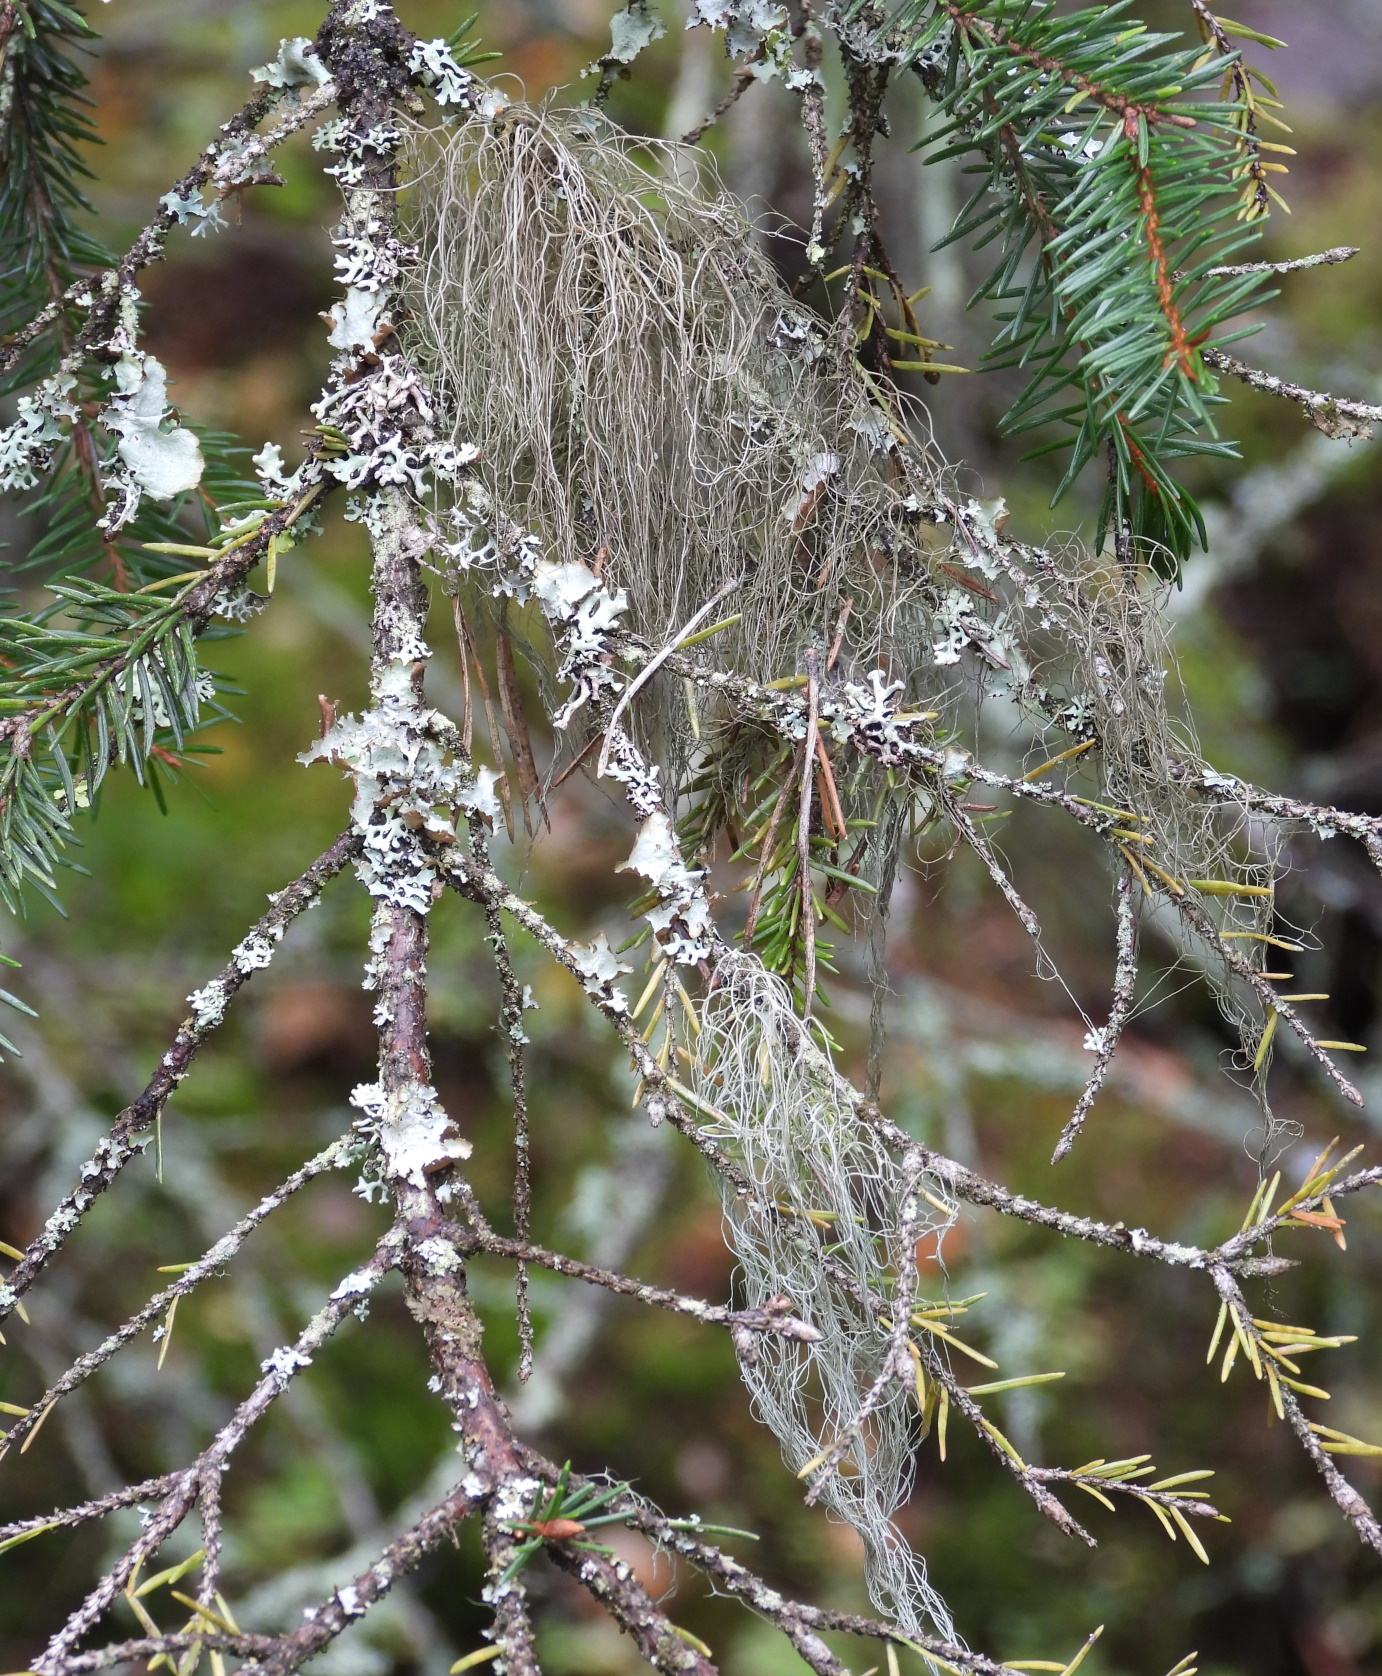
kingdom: Fungi
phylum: Ascomycota
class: Lecanoromycetes
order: Lecanorales
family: Parmeliaceae
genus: Bryoria
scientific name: Bryoria fuscescens
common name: Pale-footed horsehair lichen
